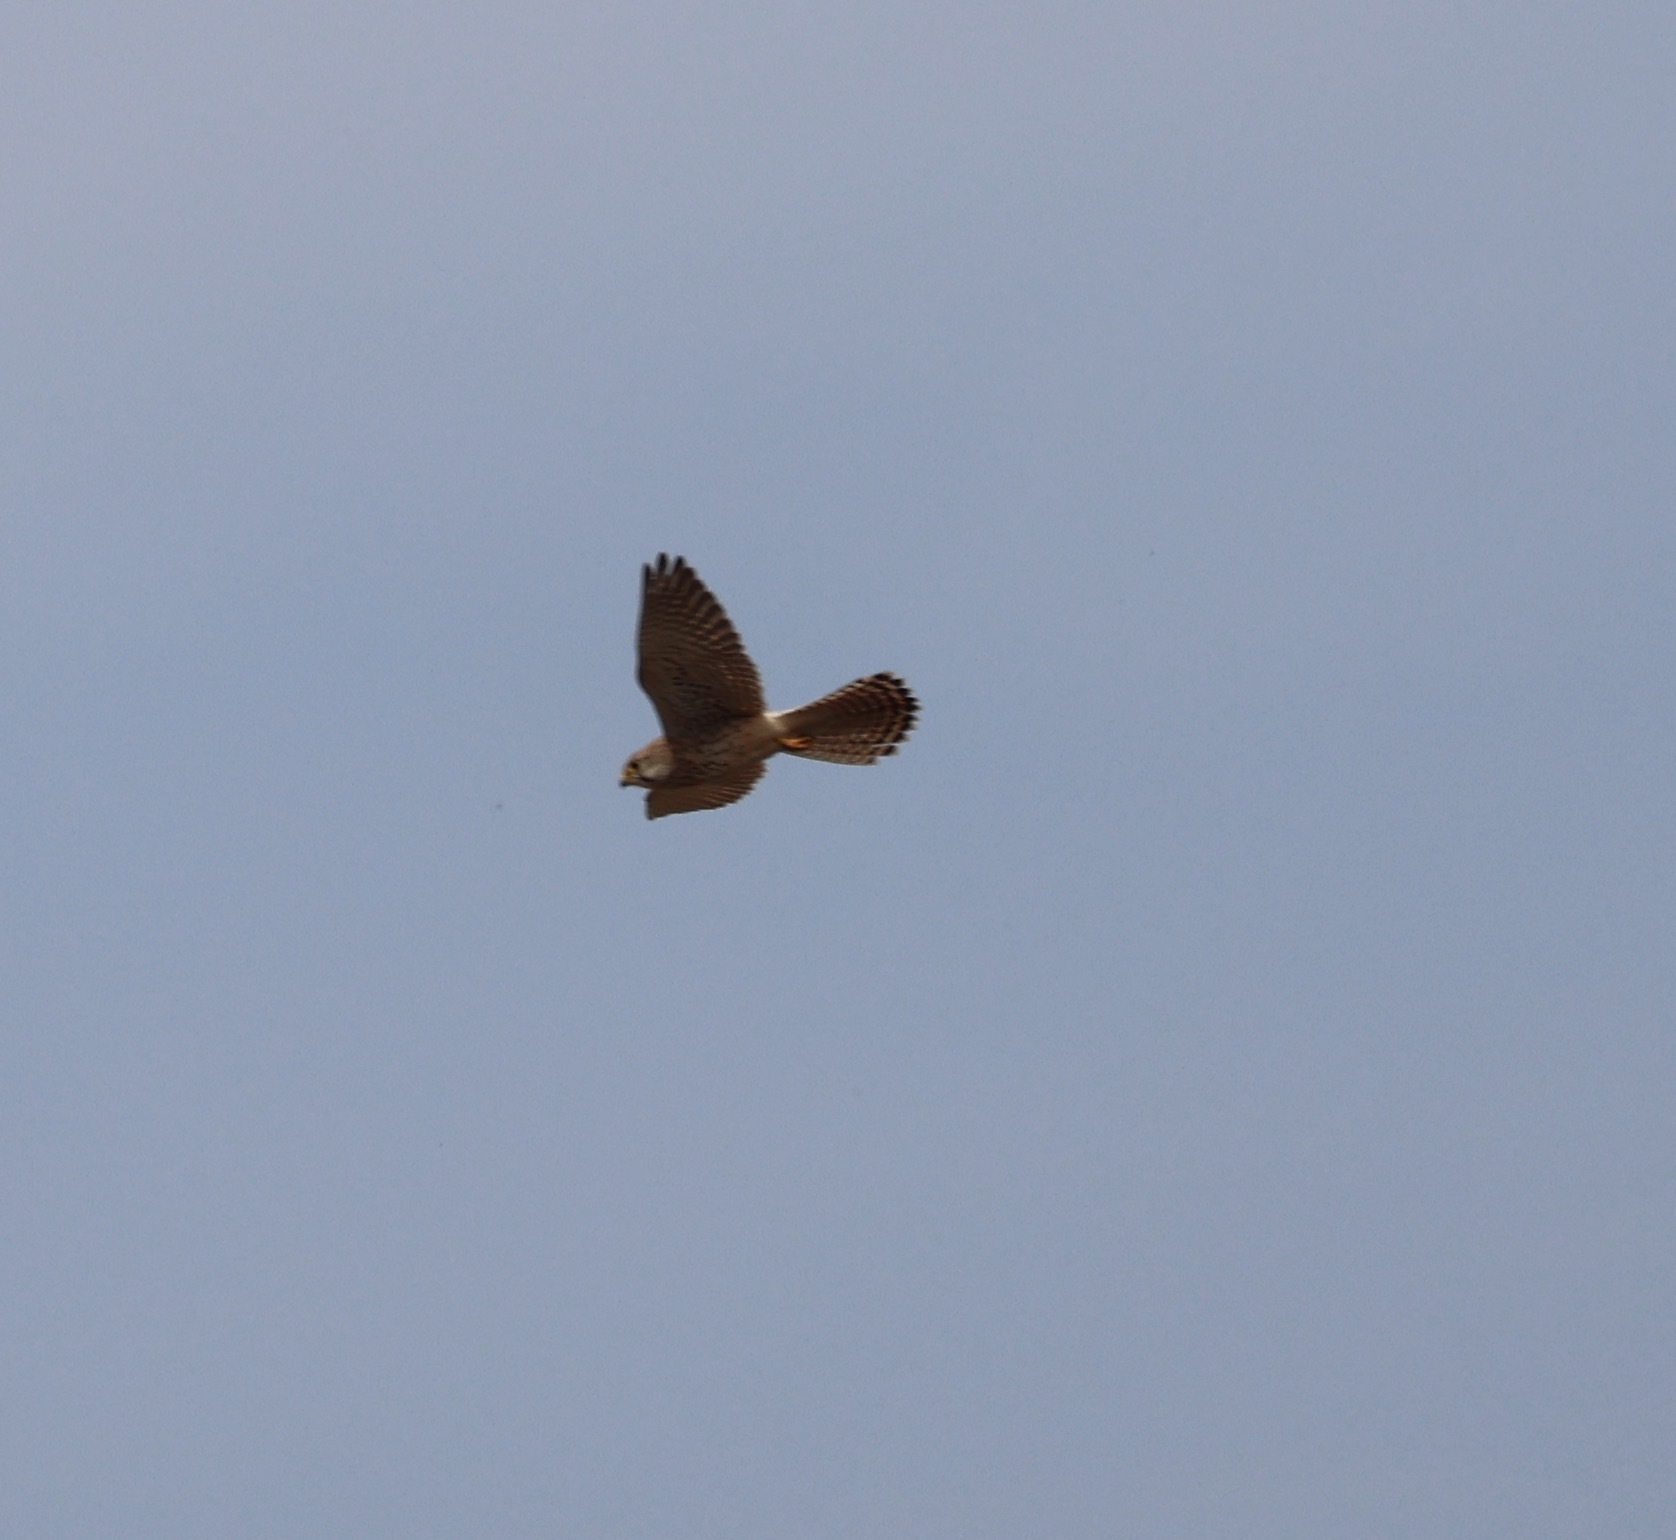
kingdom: Animalia
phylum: Chordata
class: Aves
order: Falconiformes
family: Falconidae
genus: Falco
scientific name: Falco tinnunculus
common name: Common kestrel
